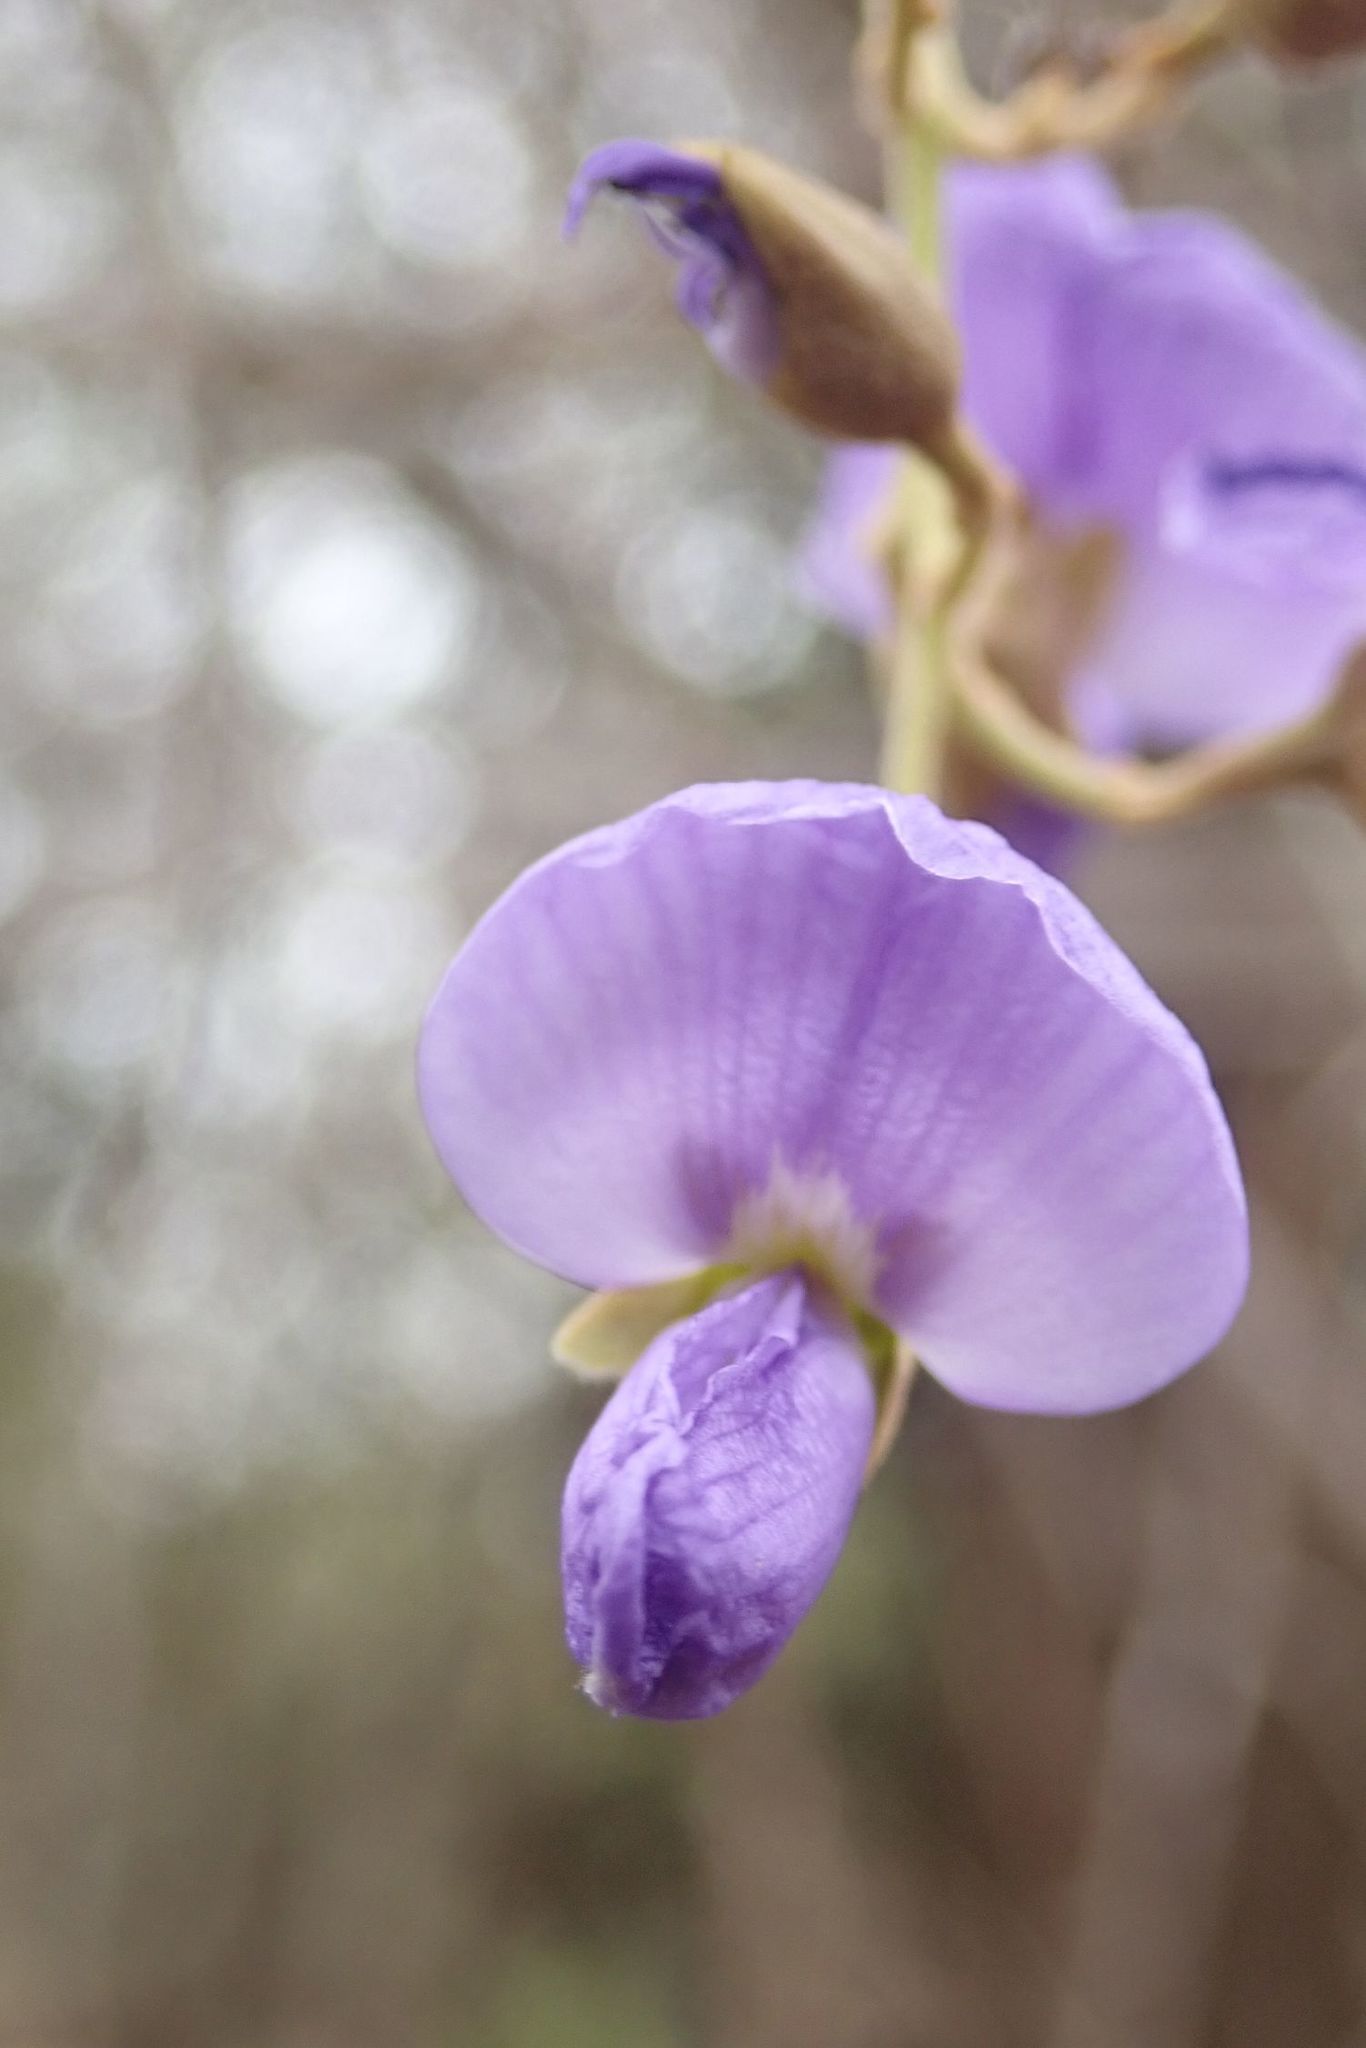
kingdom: Plantae
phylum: Tracheophyta
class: Magnoliopsida
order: Fabales
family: Fabaceae
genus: Bolusanthus
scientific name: Bolusanthus speciosus
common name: Tree wisteria
